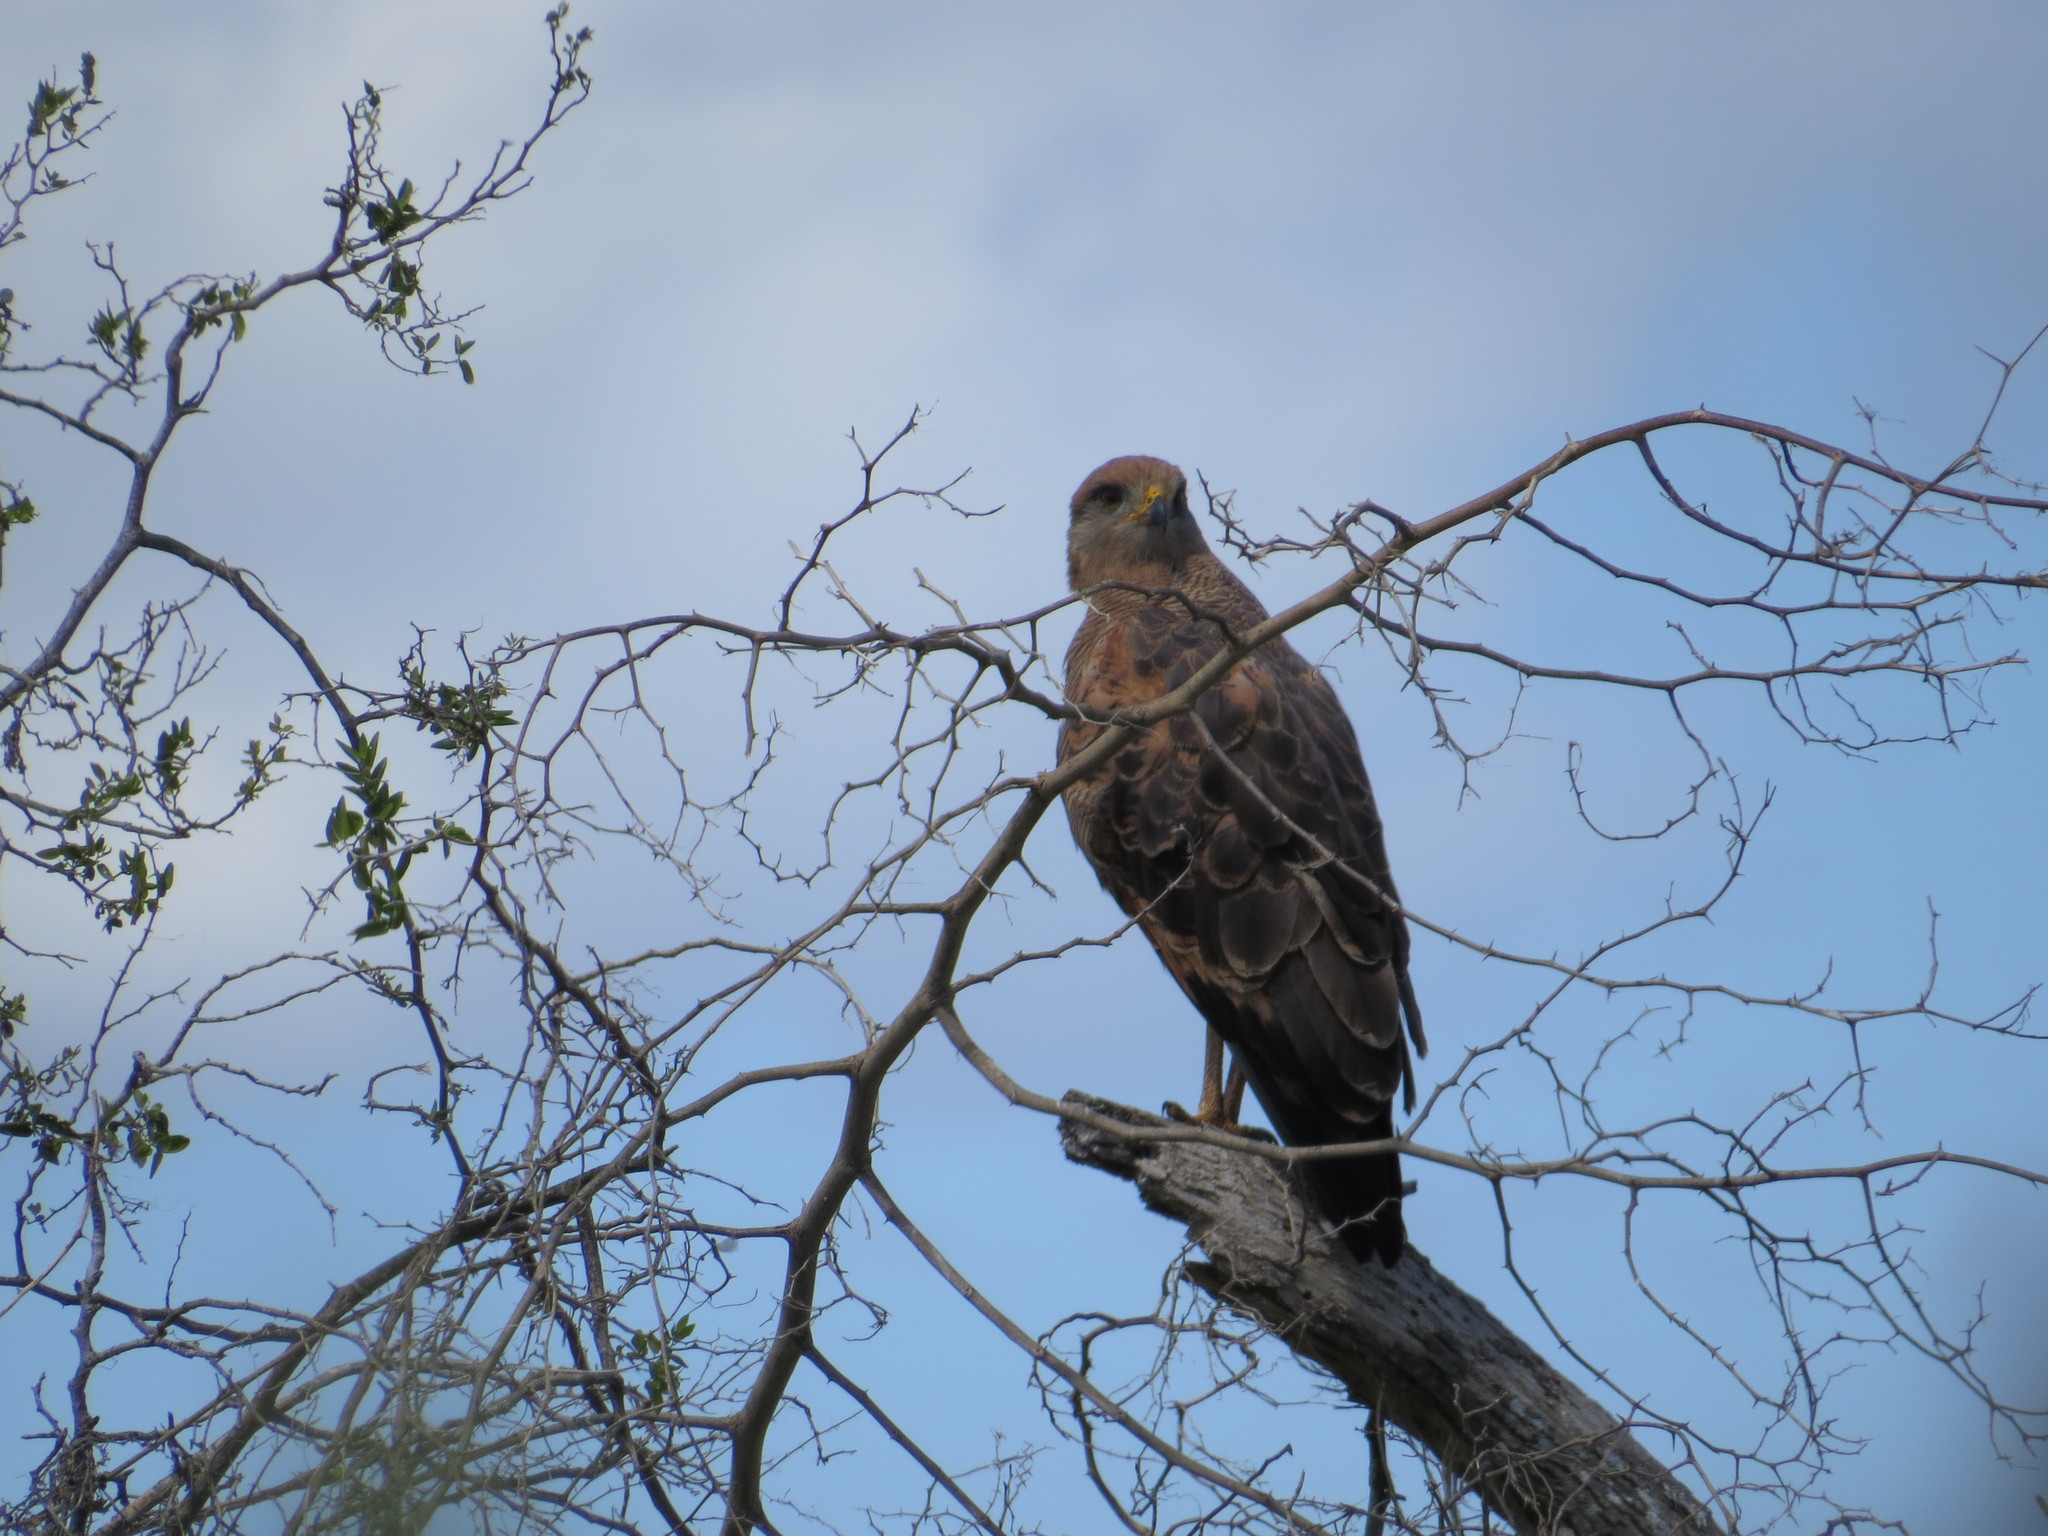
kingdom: Animalia
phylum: Chordata
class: Aves
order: Accipitriformes
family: Accipitridae
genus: Buteogallus
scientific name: Buteogallus meridionalis
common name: Savanna hawk
